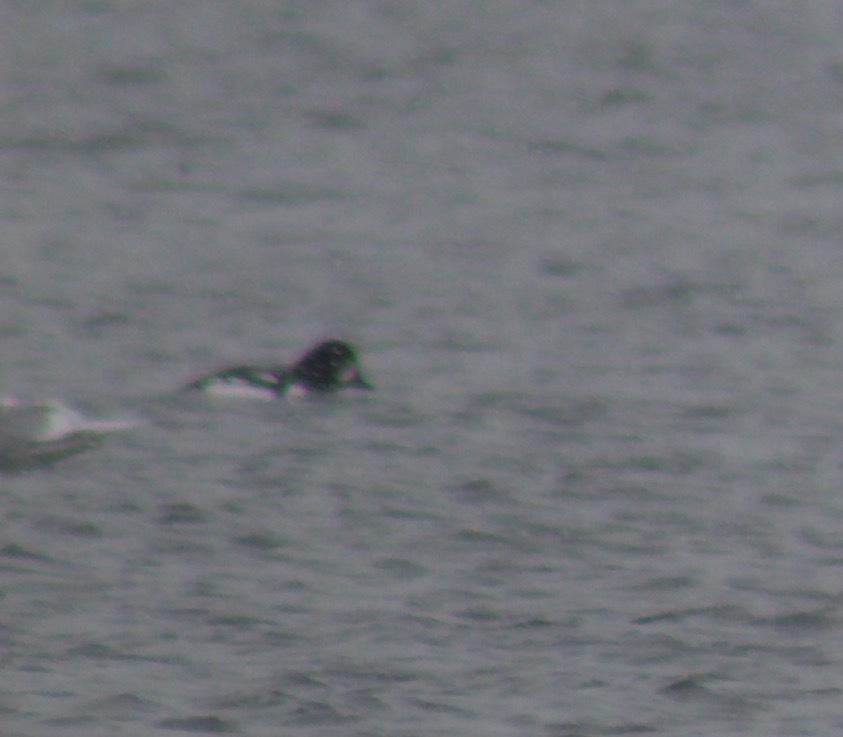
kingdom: Animalia
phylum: Chordata
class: Aves
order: Anseriformes
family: Anatidae
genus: Bucephala
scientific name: Bucephala clangula
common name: Common goldeneye
